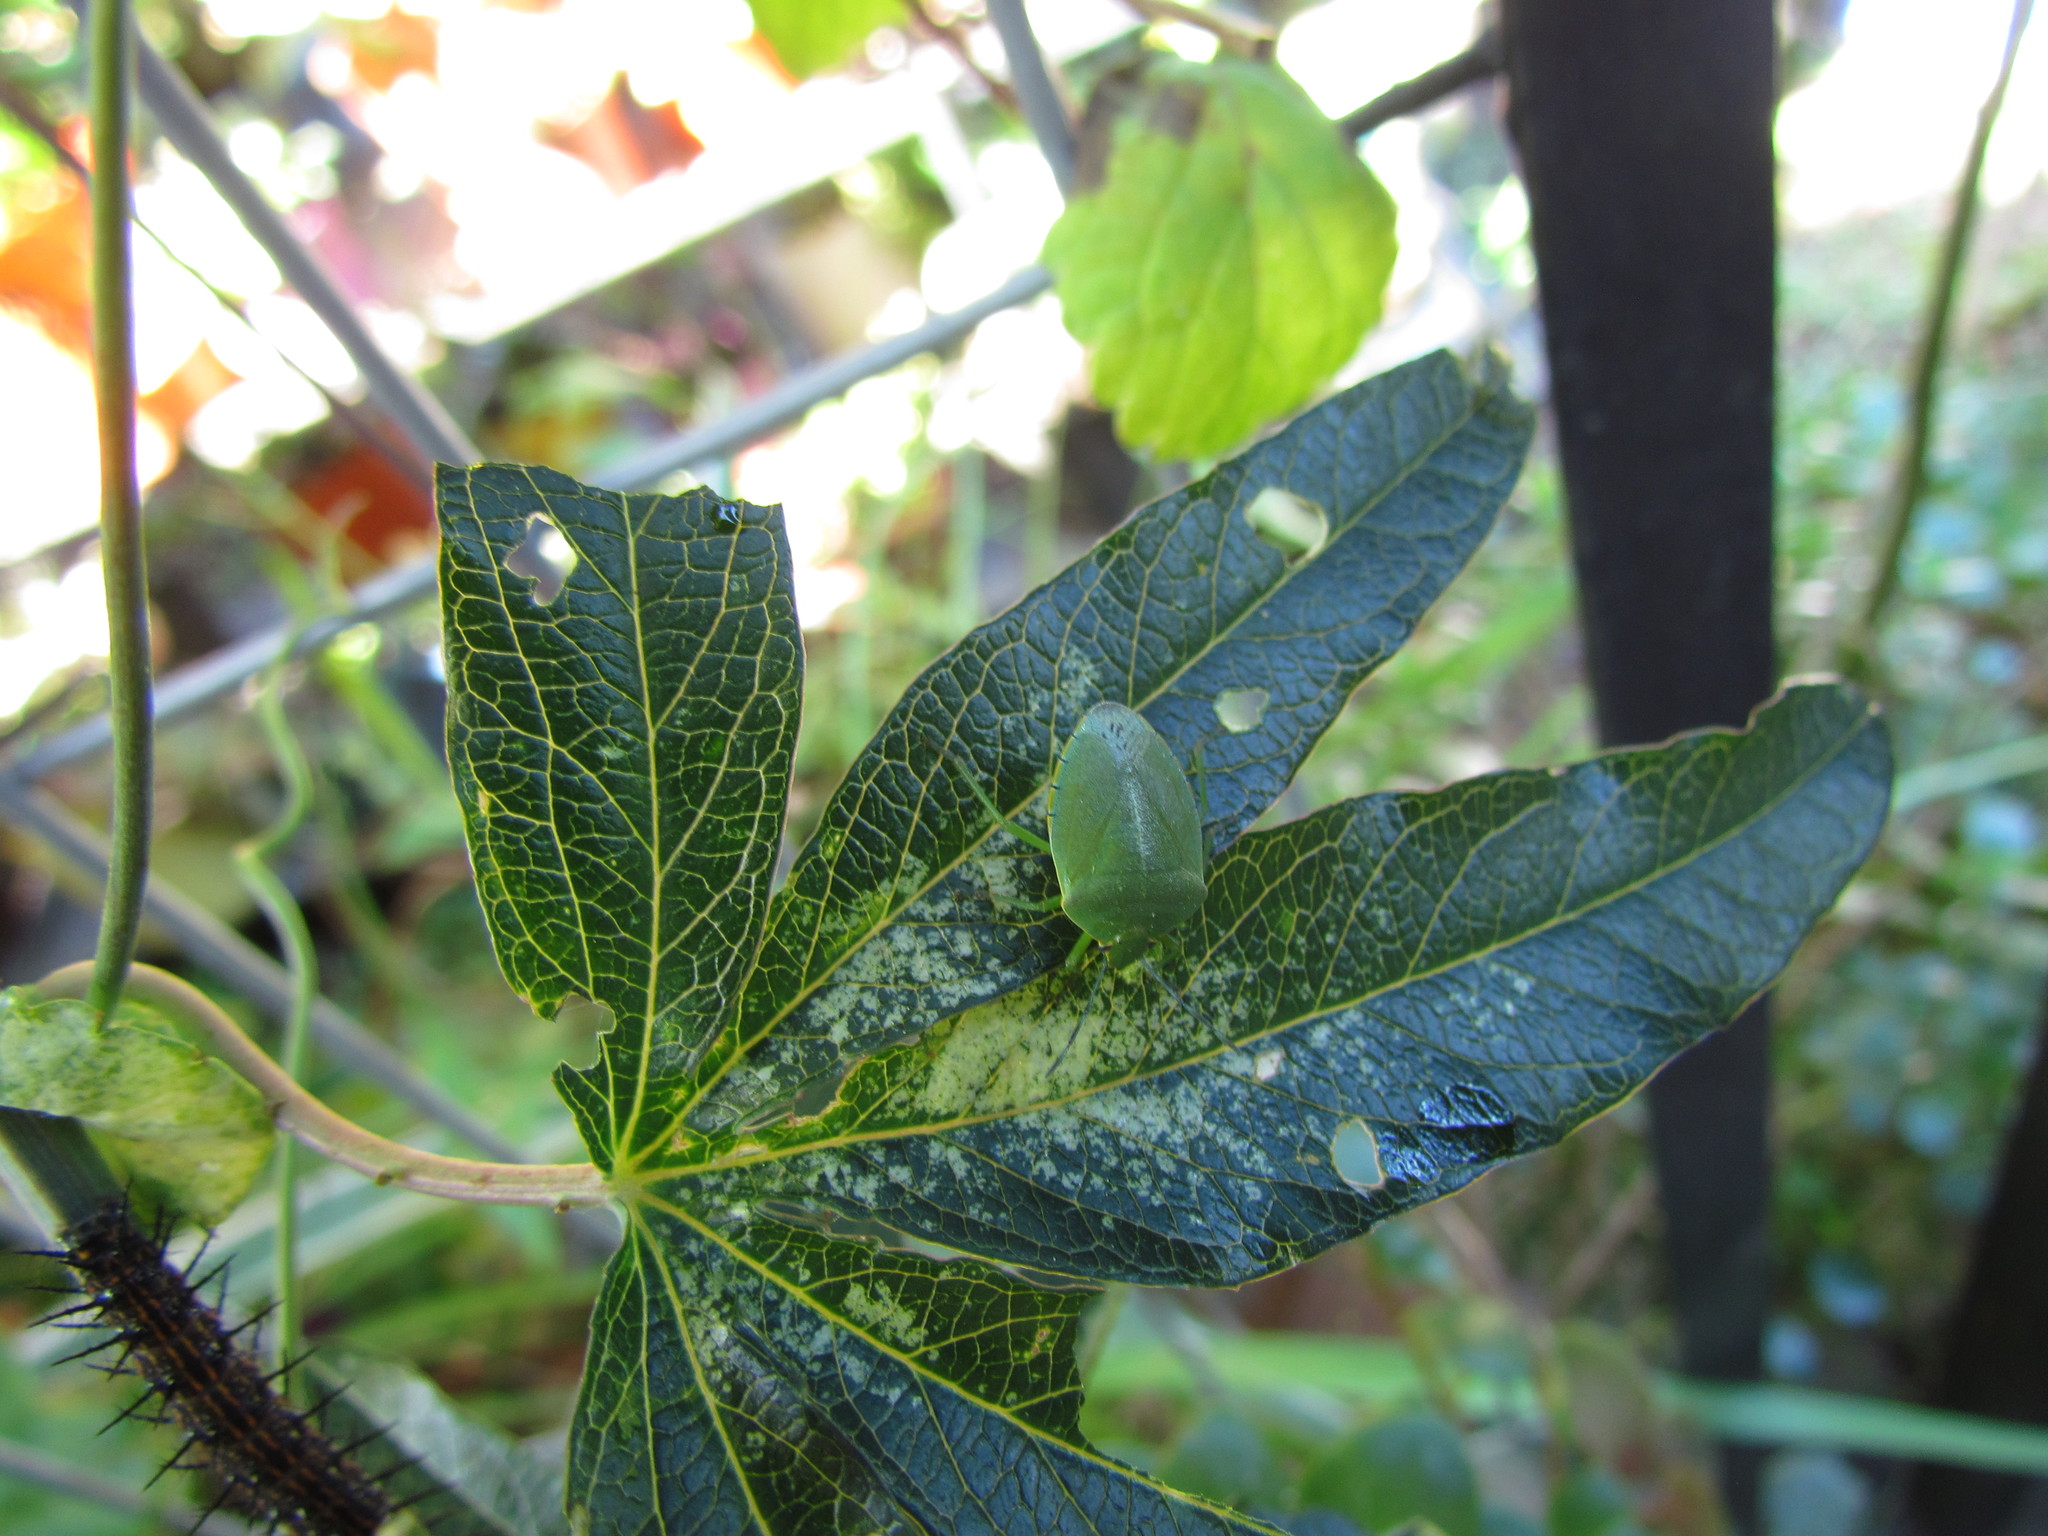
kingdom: Animalia
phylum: Arthropoda
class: Insecta
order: Hemiptera
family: Pentatomidae
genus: Chinavia
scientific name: Chinavia herbida
